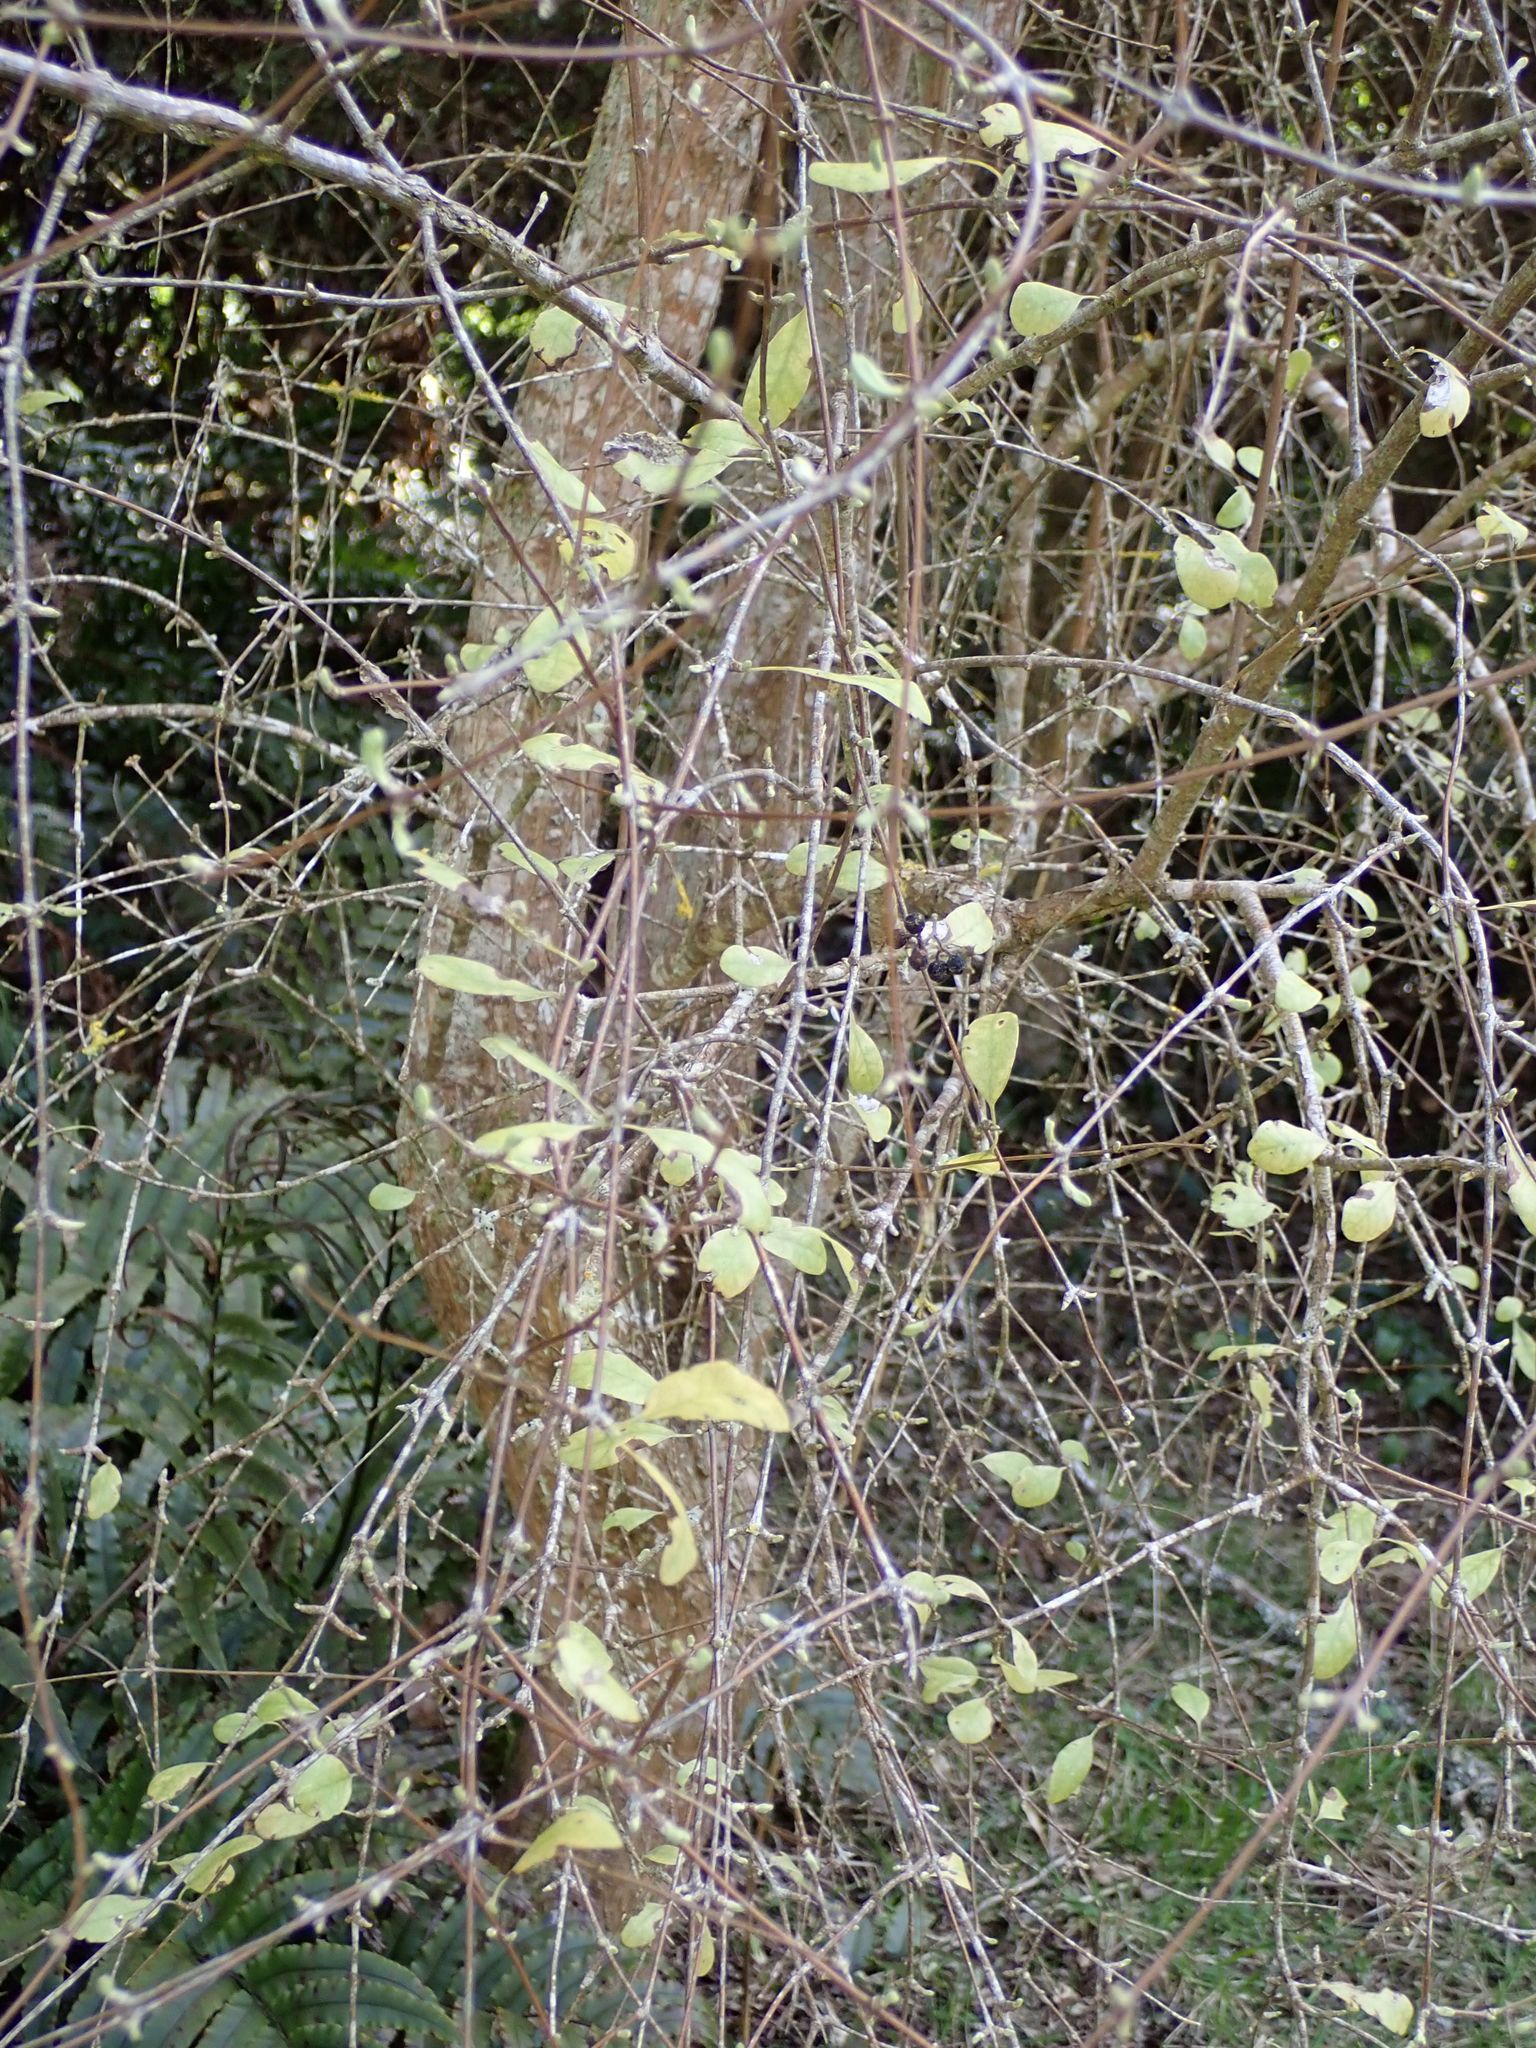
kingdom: Plantae
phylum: Tracheophyta
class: Magnoliopsida
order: Asterales
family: Asteraceae
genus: Olearia
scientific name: Olearia hectorii
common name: Deciduous tree daisy
